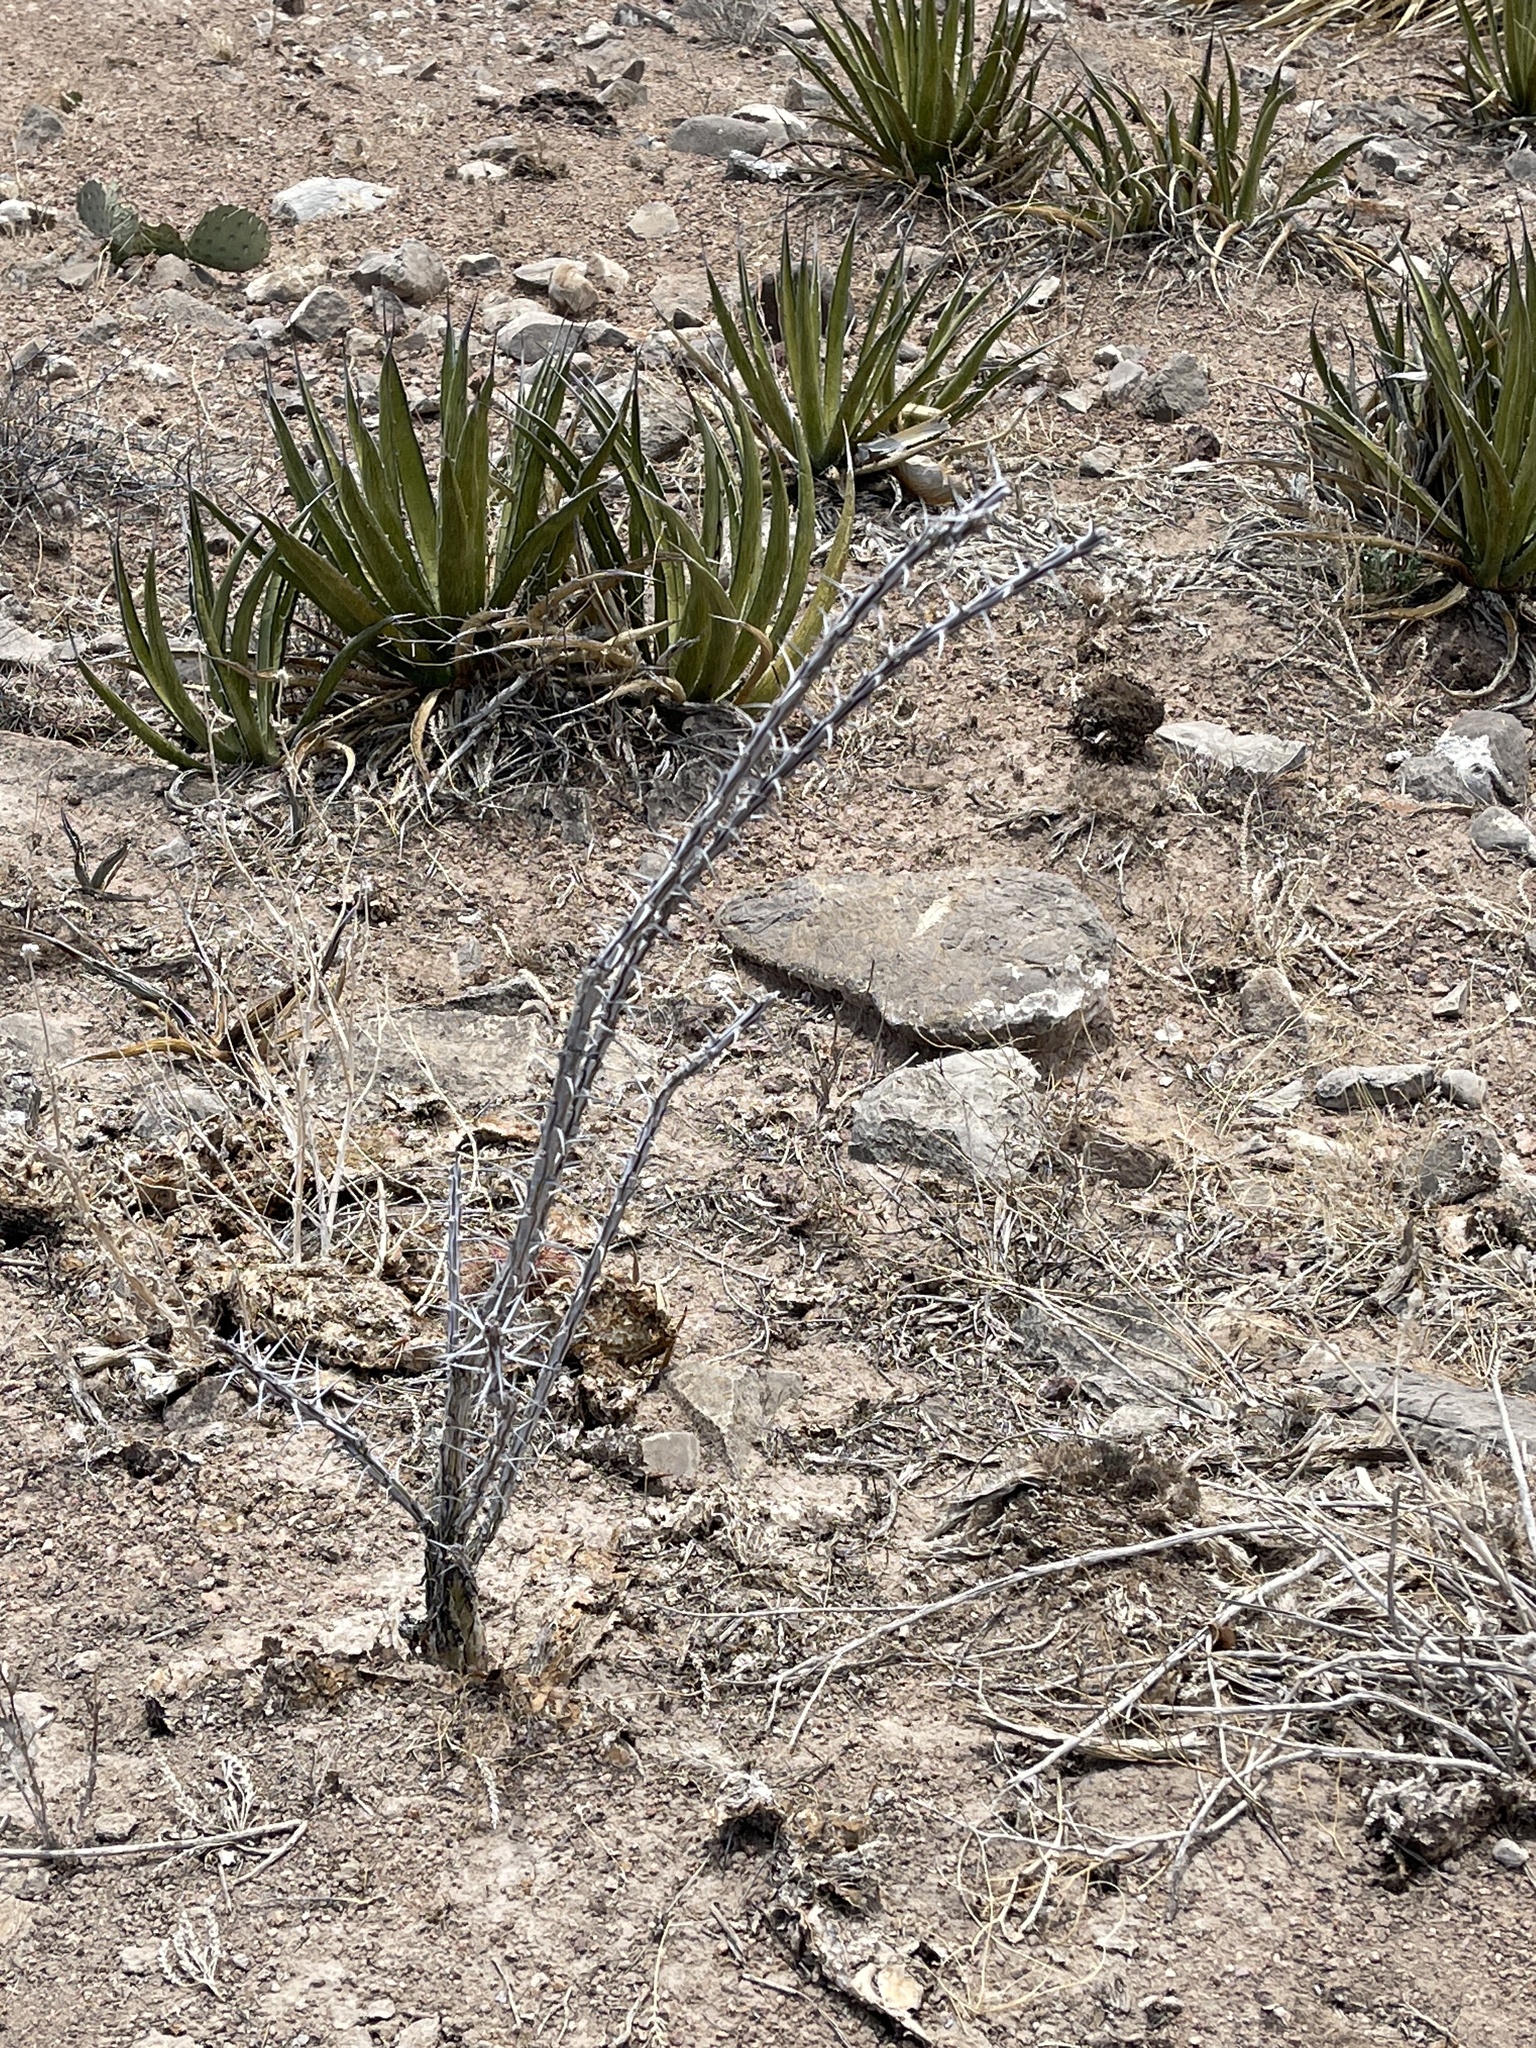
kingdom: Plantae
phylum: Tracheophyta
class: Magnoliopsida
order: Ericales
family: Fouquieriaceae
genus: Fouquieria
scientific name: Fouquieria splendens
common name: Vine-cactus
